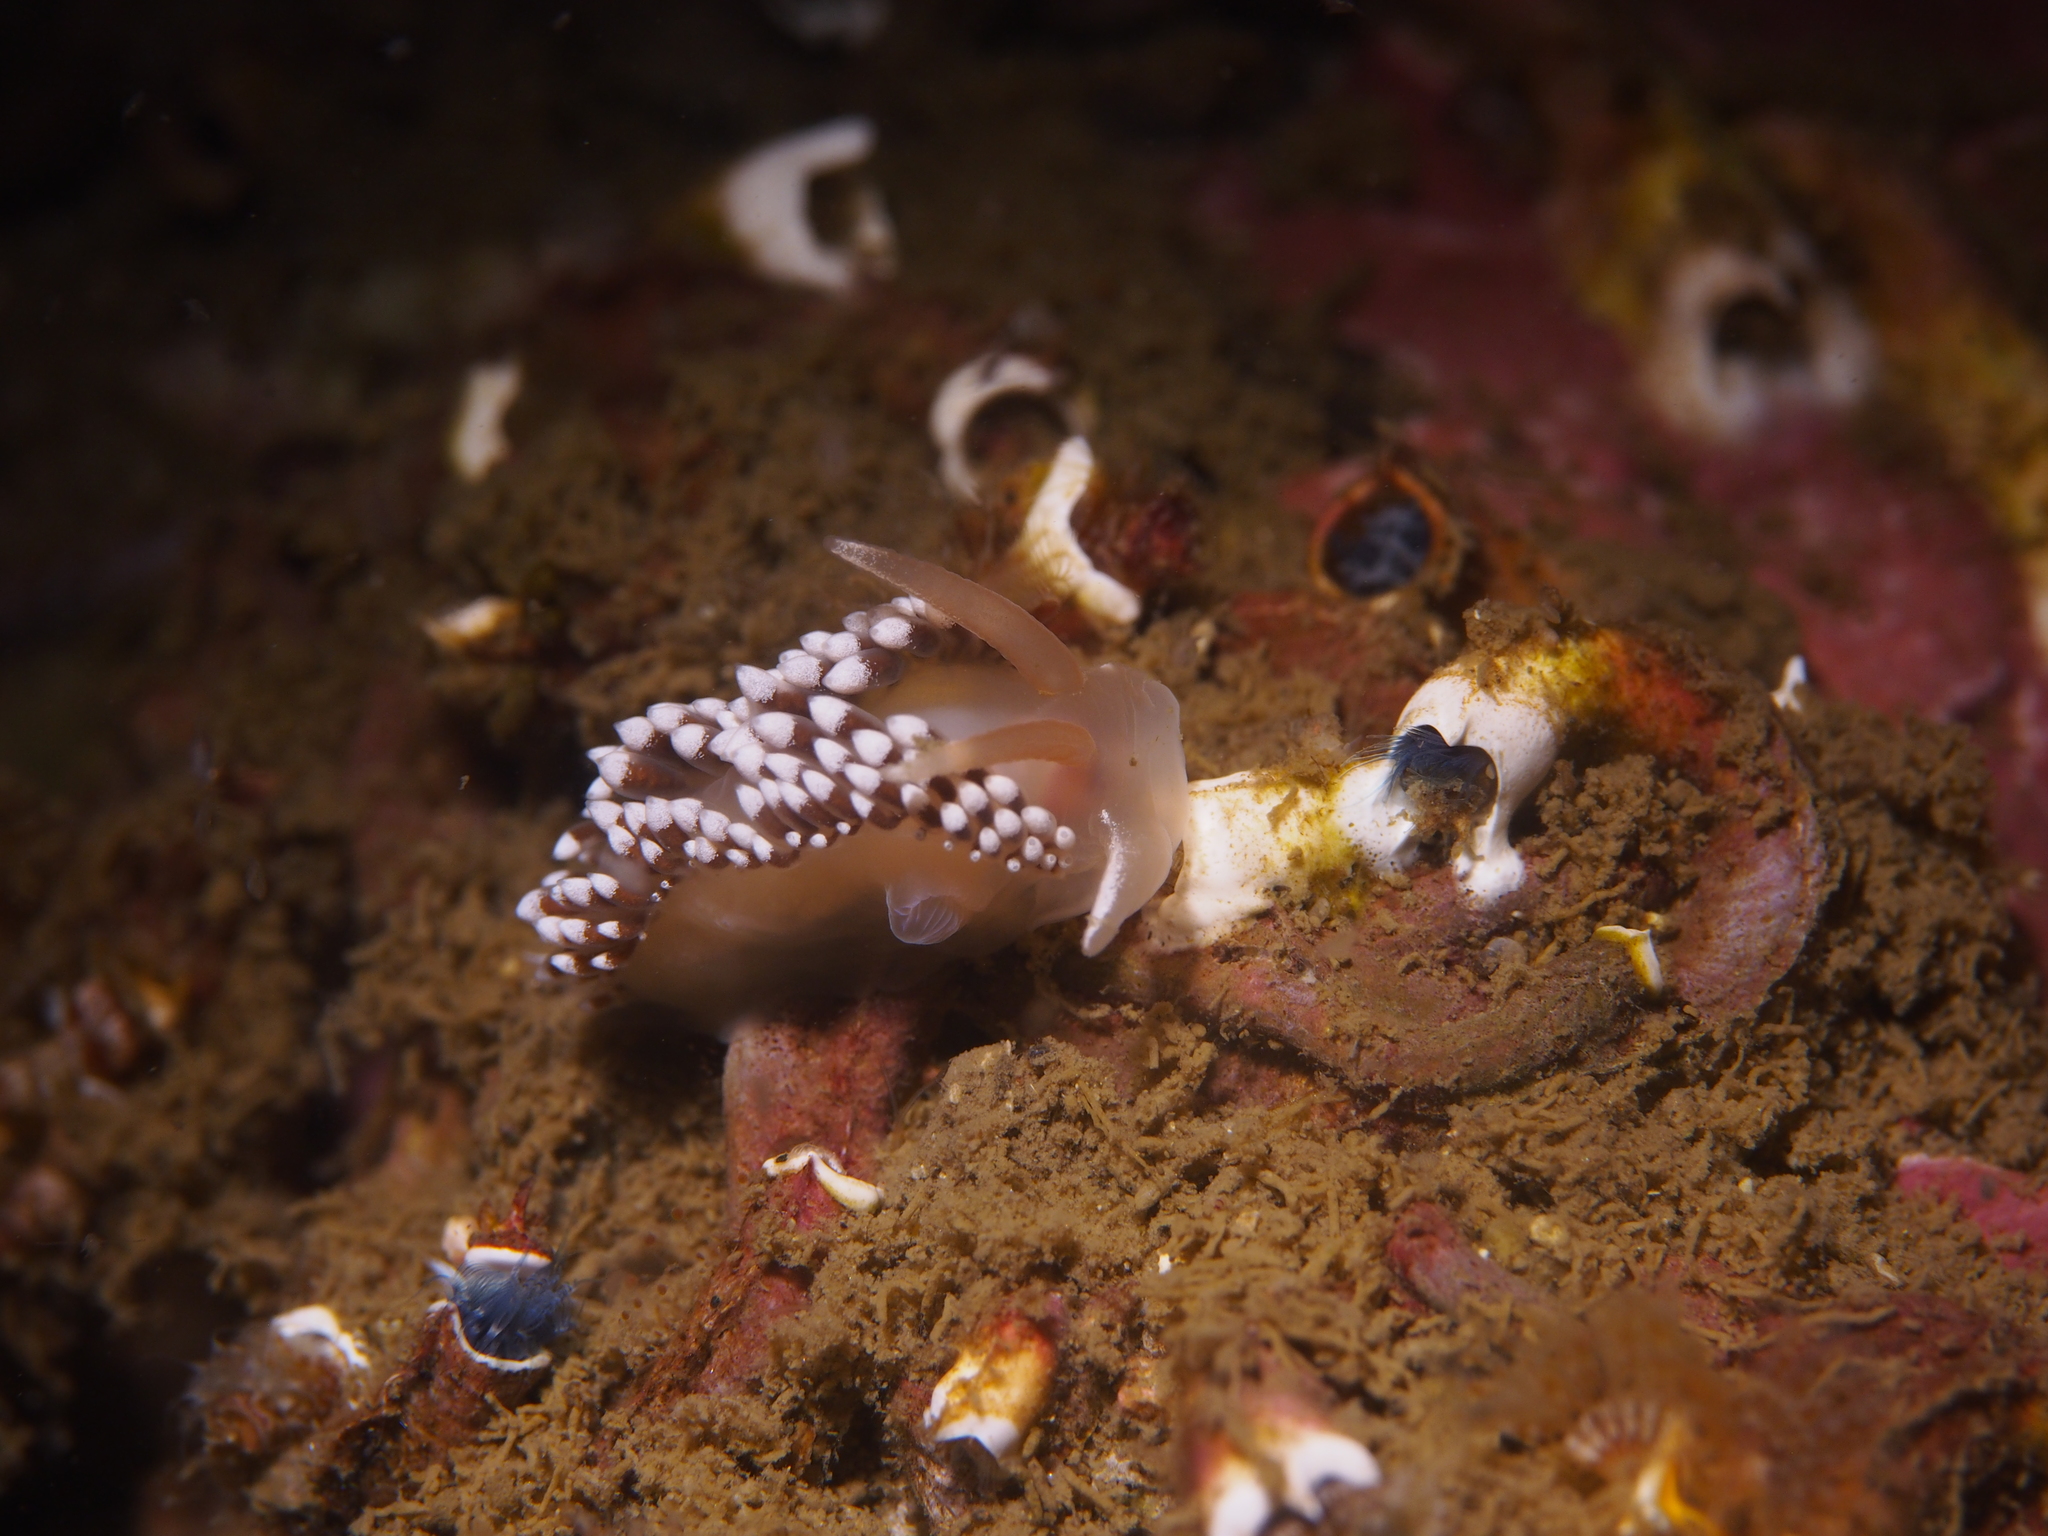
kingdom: Animalia
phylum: Mollusca
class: Gastropoda
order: Nudibranchia
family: Coryphellidae
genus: Coryphella
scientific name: Coryphella verrucosa
